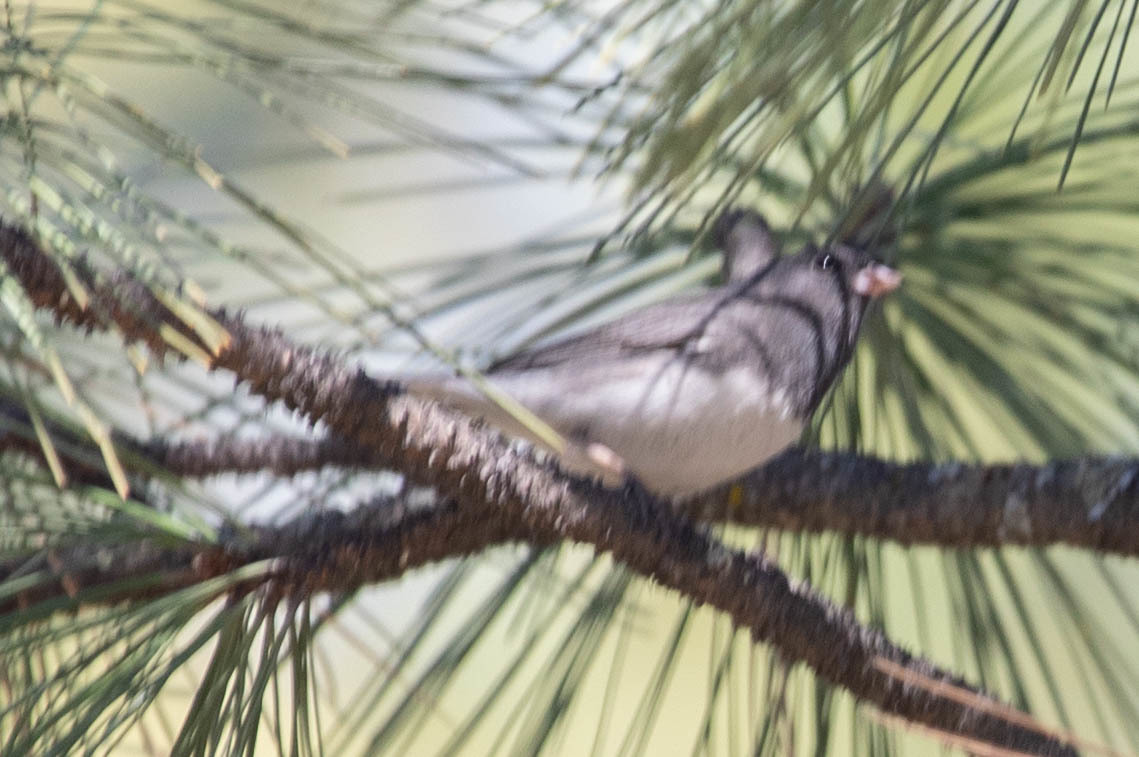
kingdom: Animalia
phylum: Chordata
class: Aves
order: Passeriformes
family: Passerellidae
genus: Junco
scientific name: Junco hyemalis
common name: Dark-eyed junco
